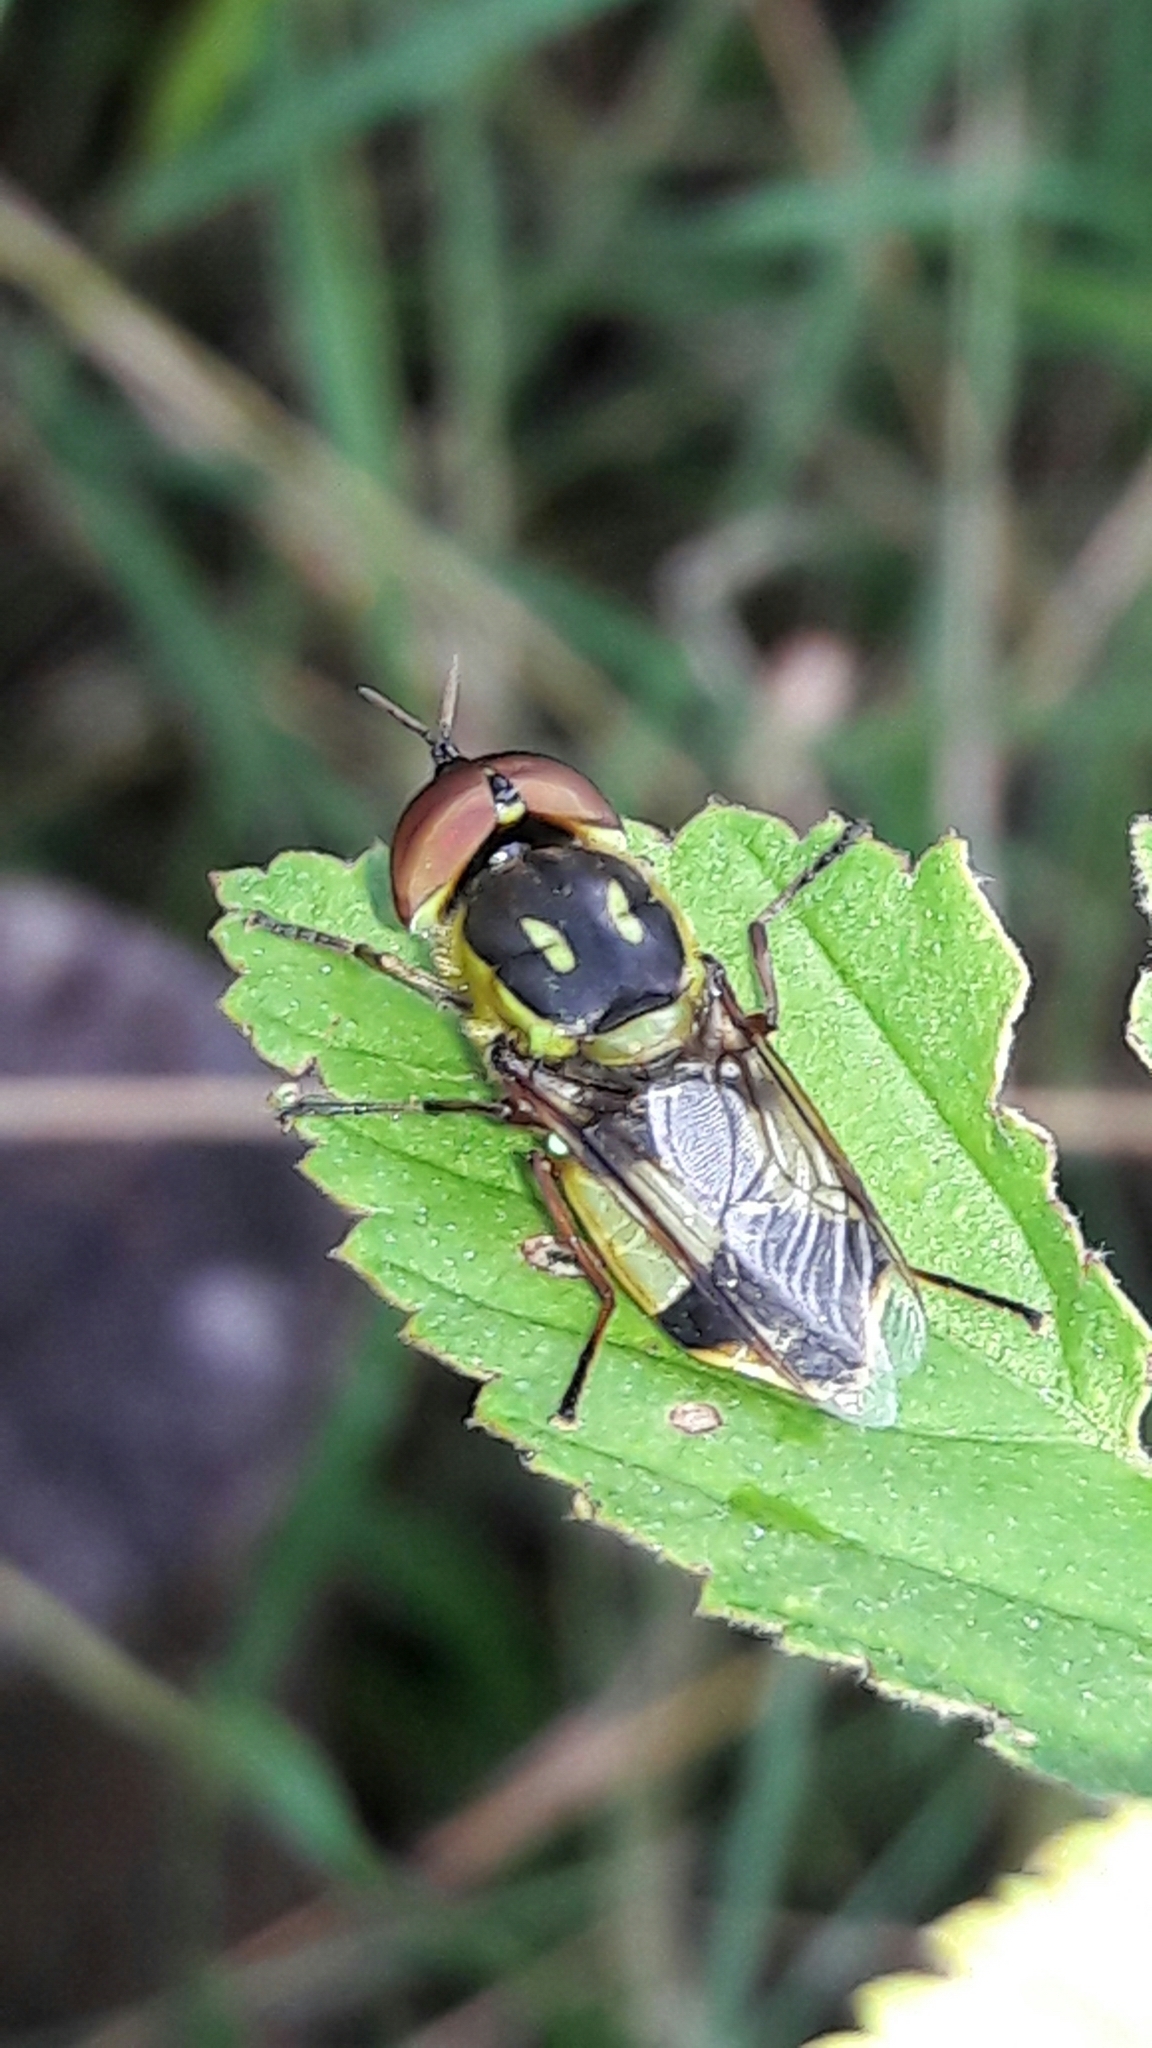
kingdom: Animalia
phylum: Arthropoda
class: Insecta
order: Diptera
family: Stratiomyidae
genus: Hedriodiscus
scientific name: Hedriodiscus pulcher
